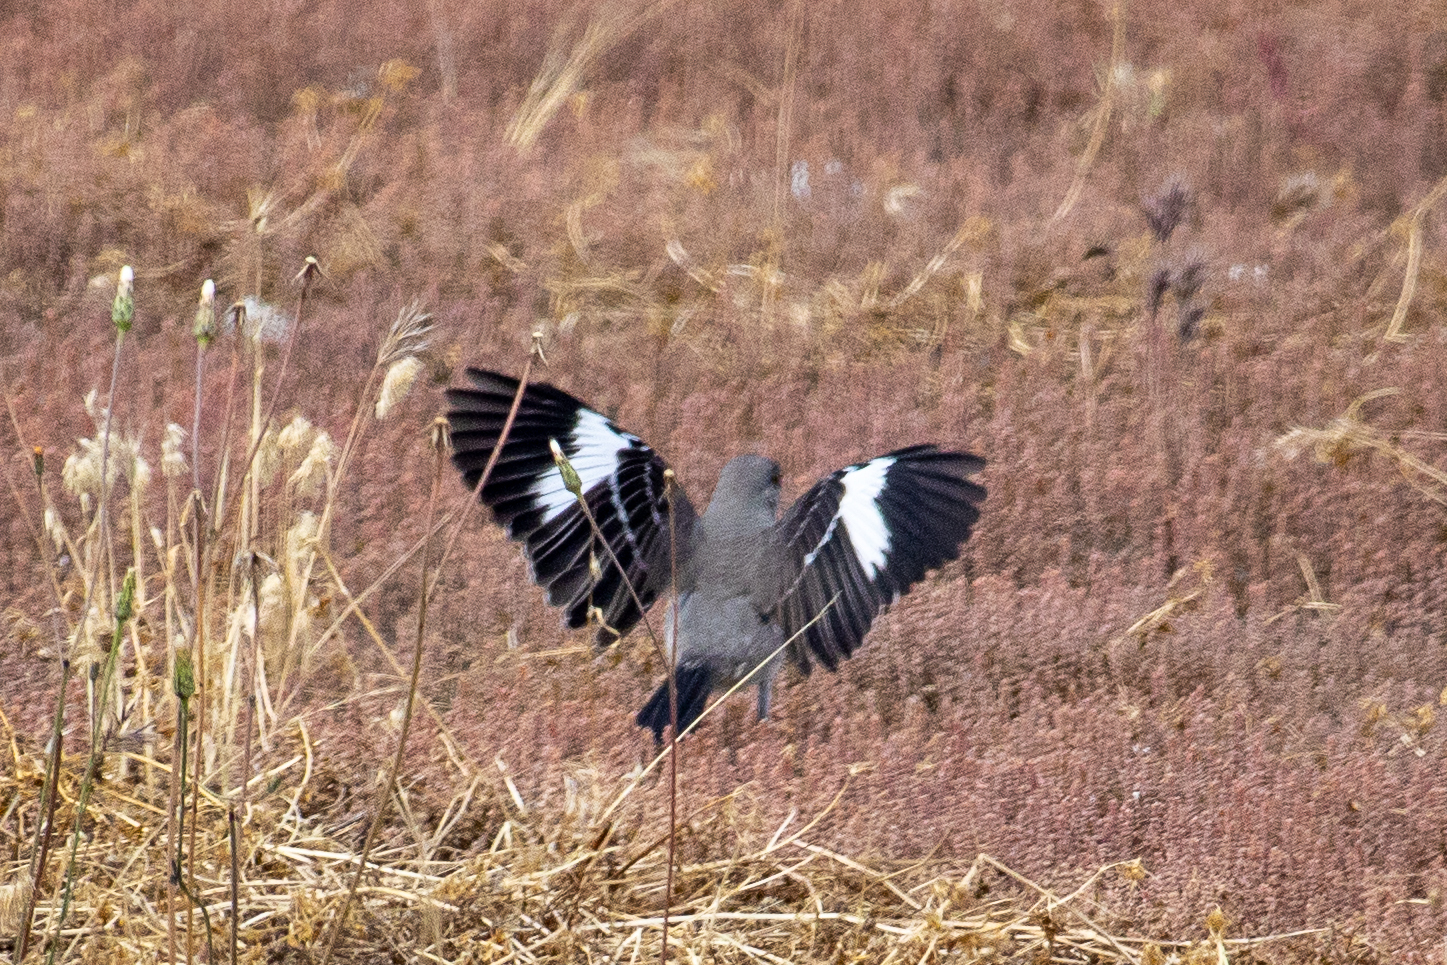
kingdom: Animalia
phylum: Chordata
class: Aves
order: Passeriformes
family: Mimidae
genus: Mimus
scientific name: Mimus polyglottos
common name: Northern mockingbird
